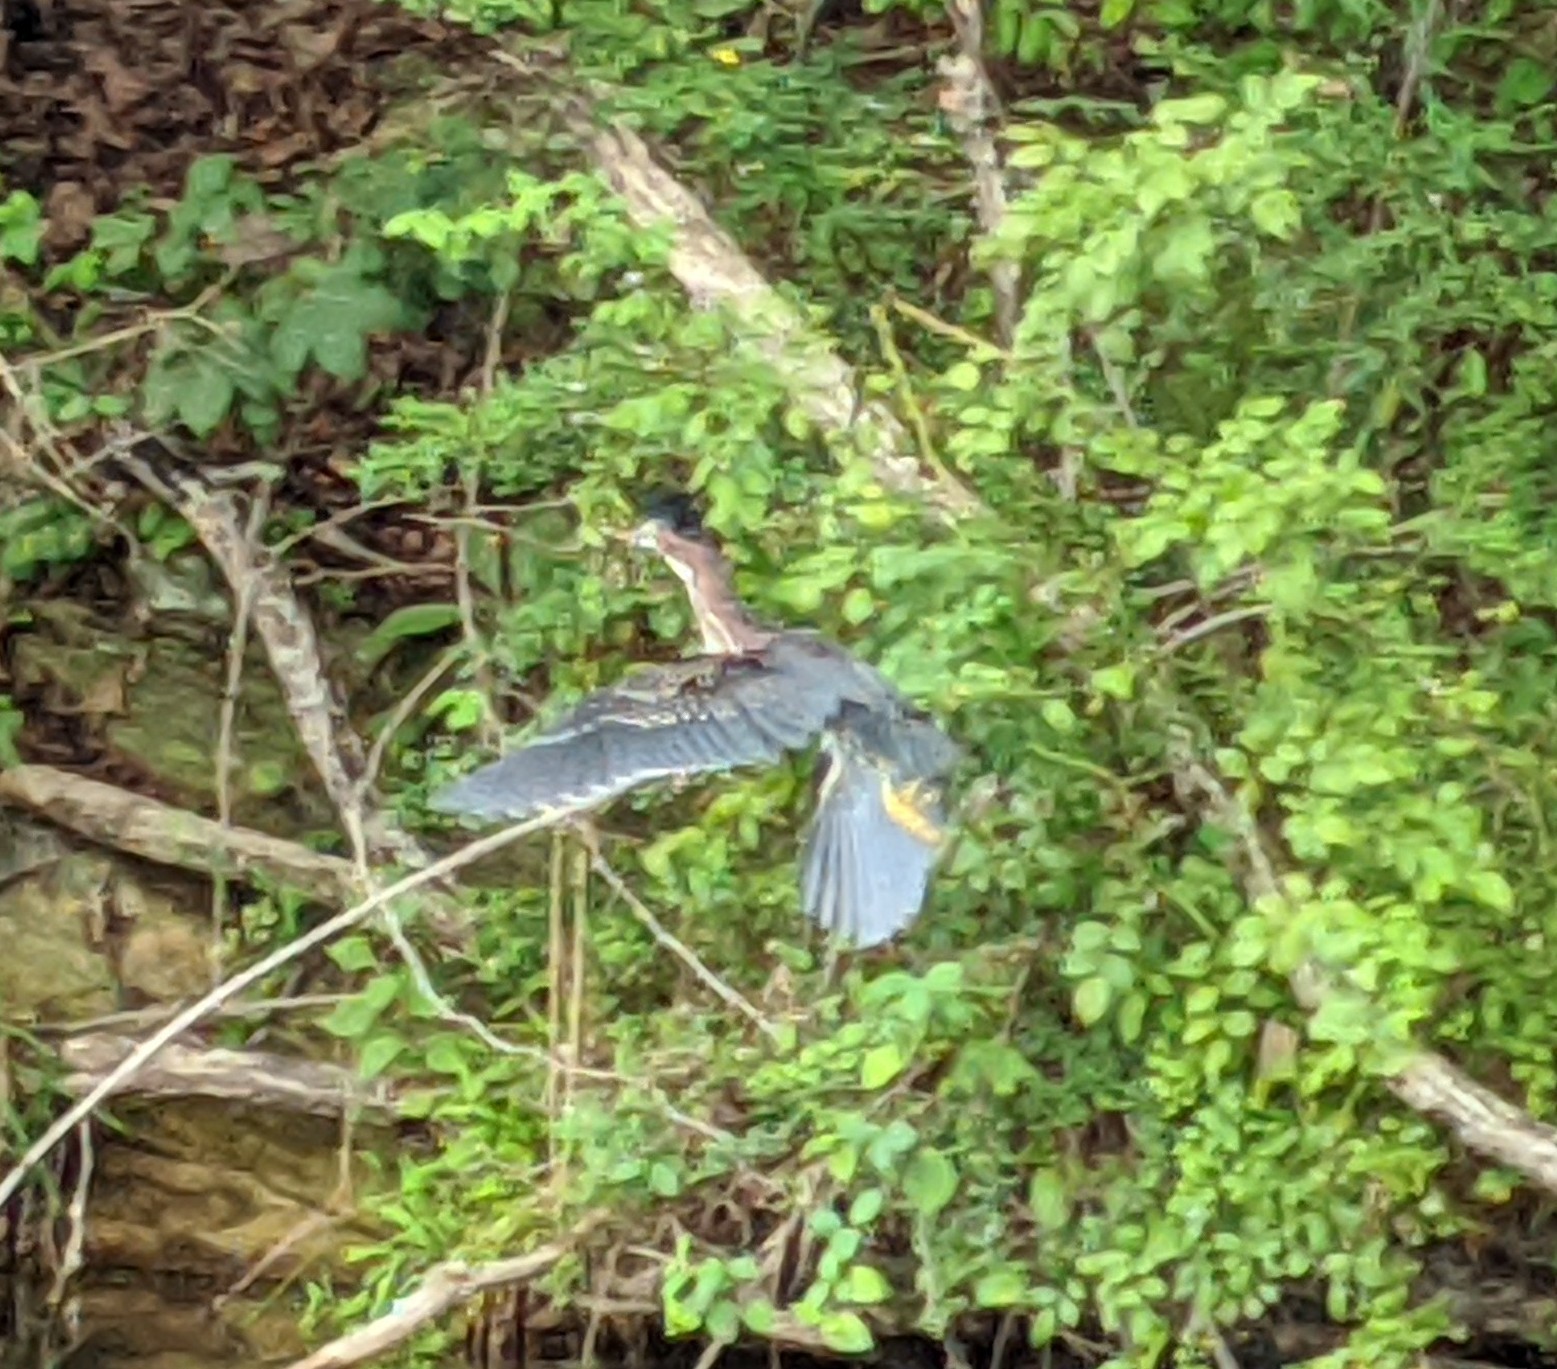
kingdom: Animalia
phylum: Chordata
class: Aves
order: Pelecaniformes
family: Ardeidae
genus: Butorides
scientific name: Butorides virescens
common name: Green heron
